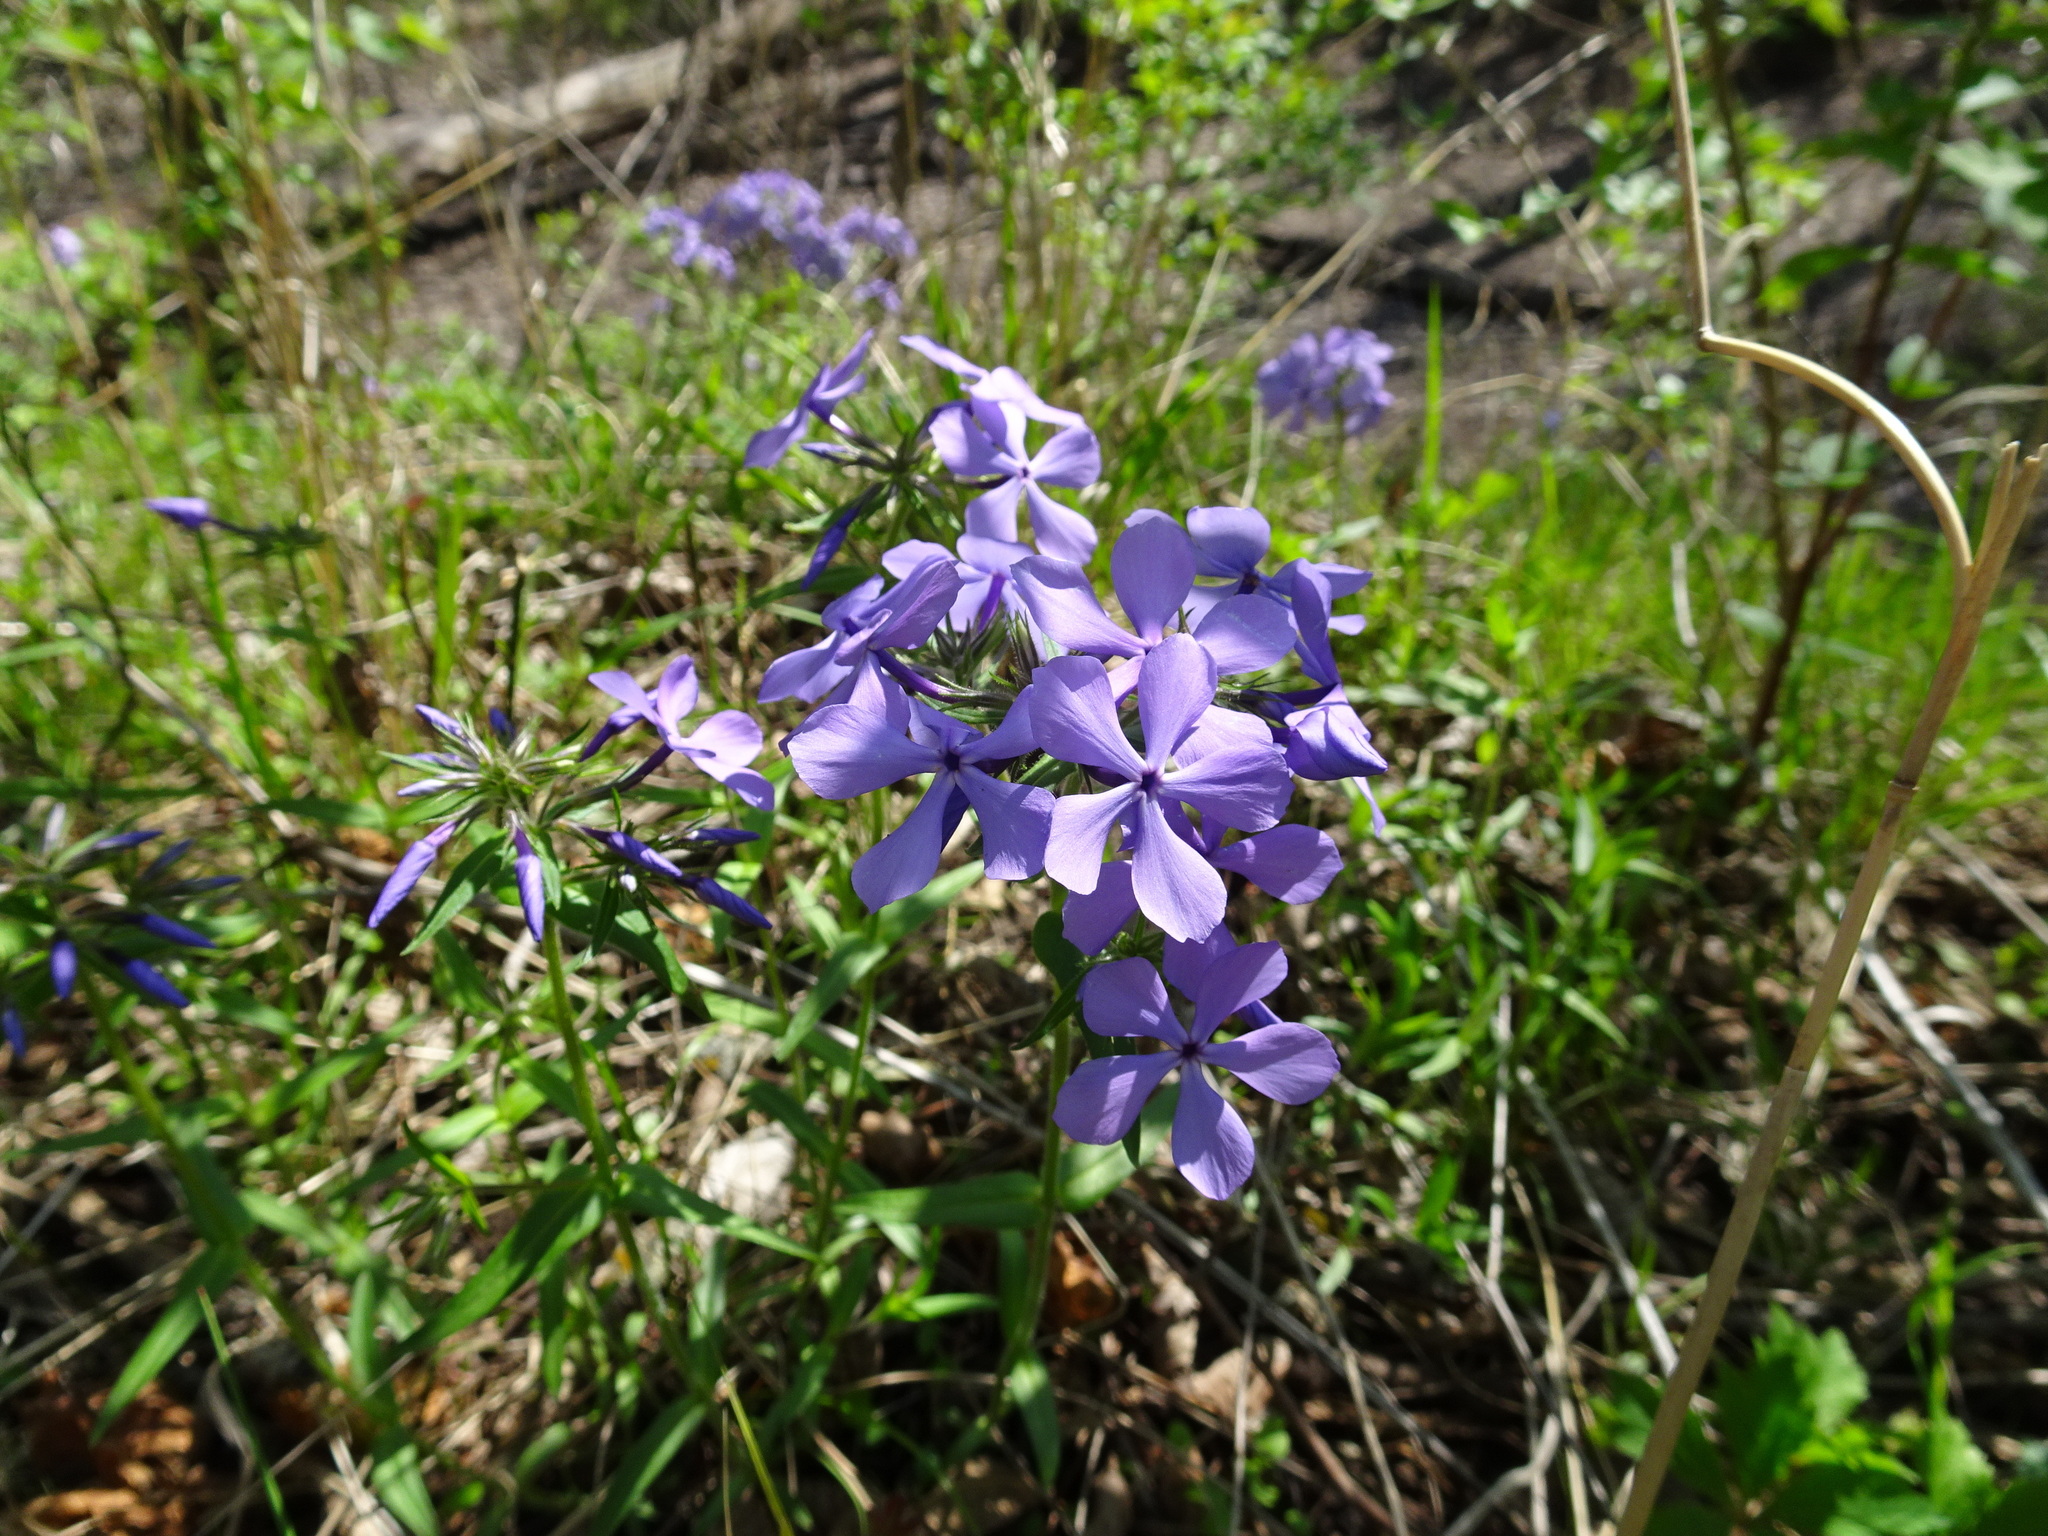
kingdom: Plantae
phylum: Tracheophyta
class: Magnoliopsida
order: Ericales
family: Polemoniaceae
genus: Phlox
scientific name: Phlox divaricata
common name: Blue phlox
